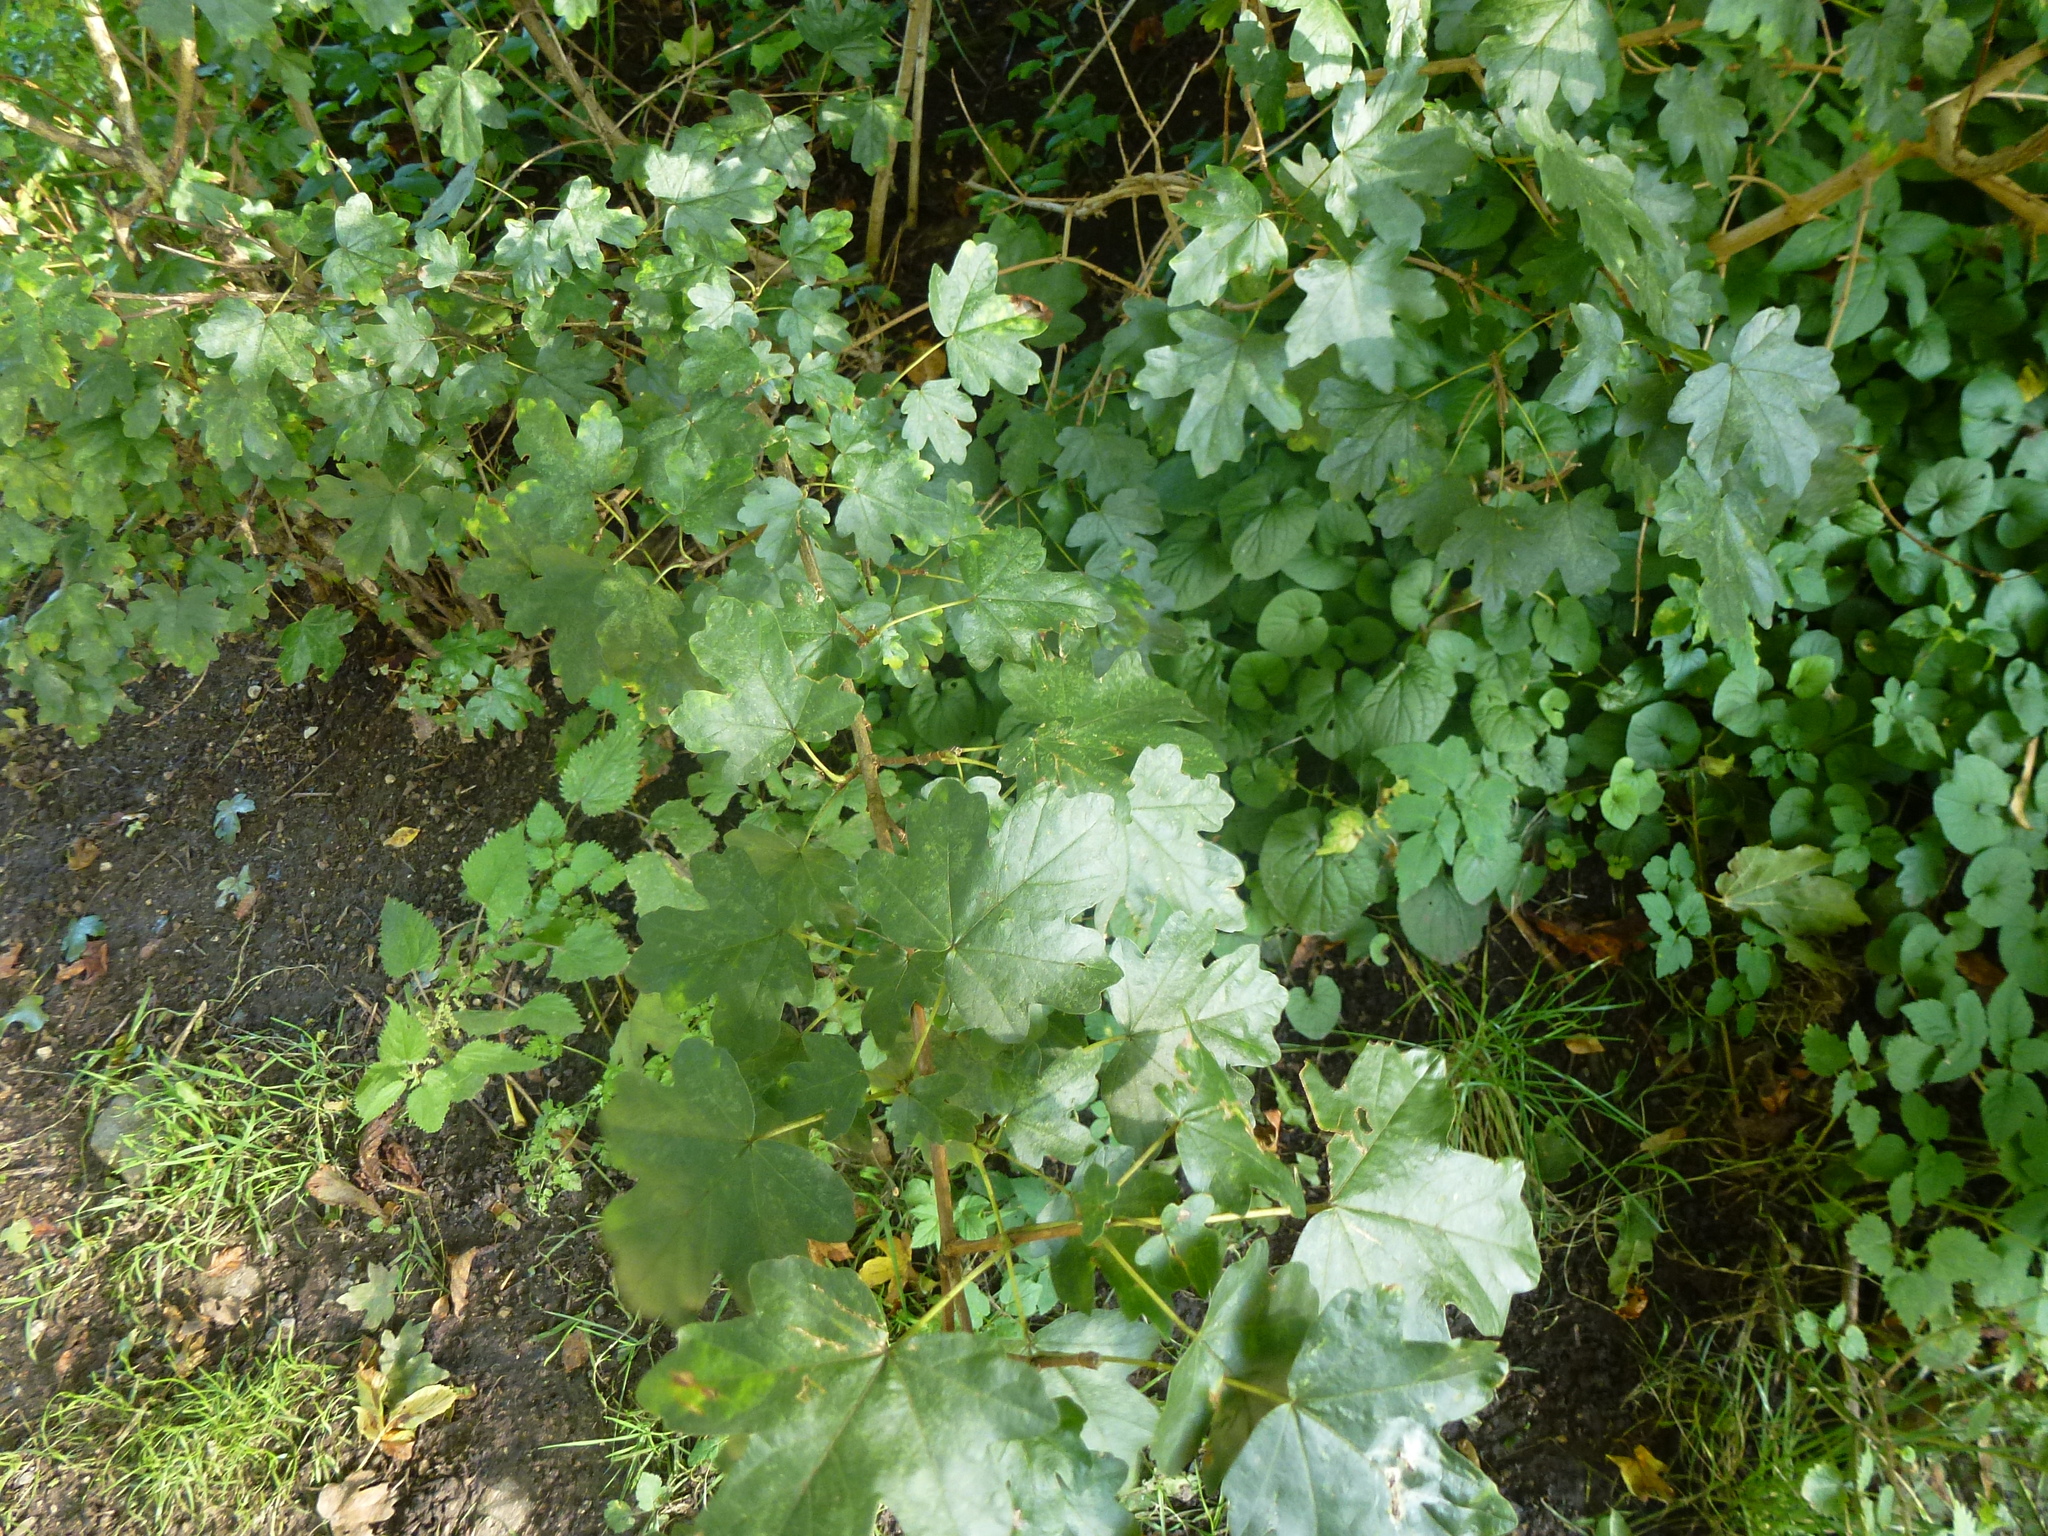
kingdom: Plantae
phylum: Tracheophyta
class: Magnoliopsida
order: Sapindales
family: Sapindaceae
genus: Acer
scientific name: Acer campestre
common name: Field maple
